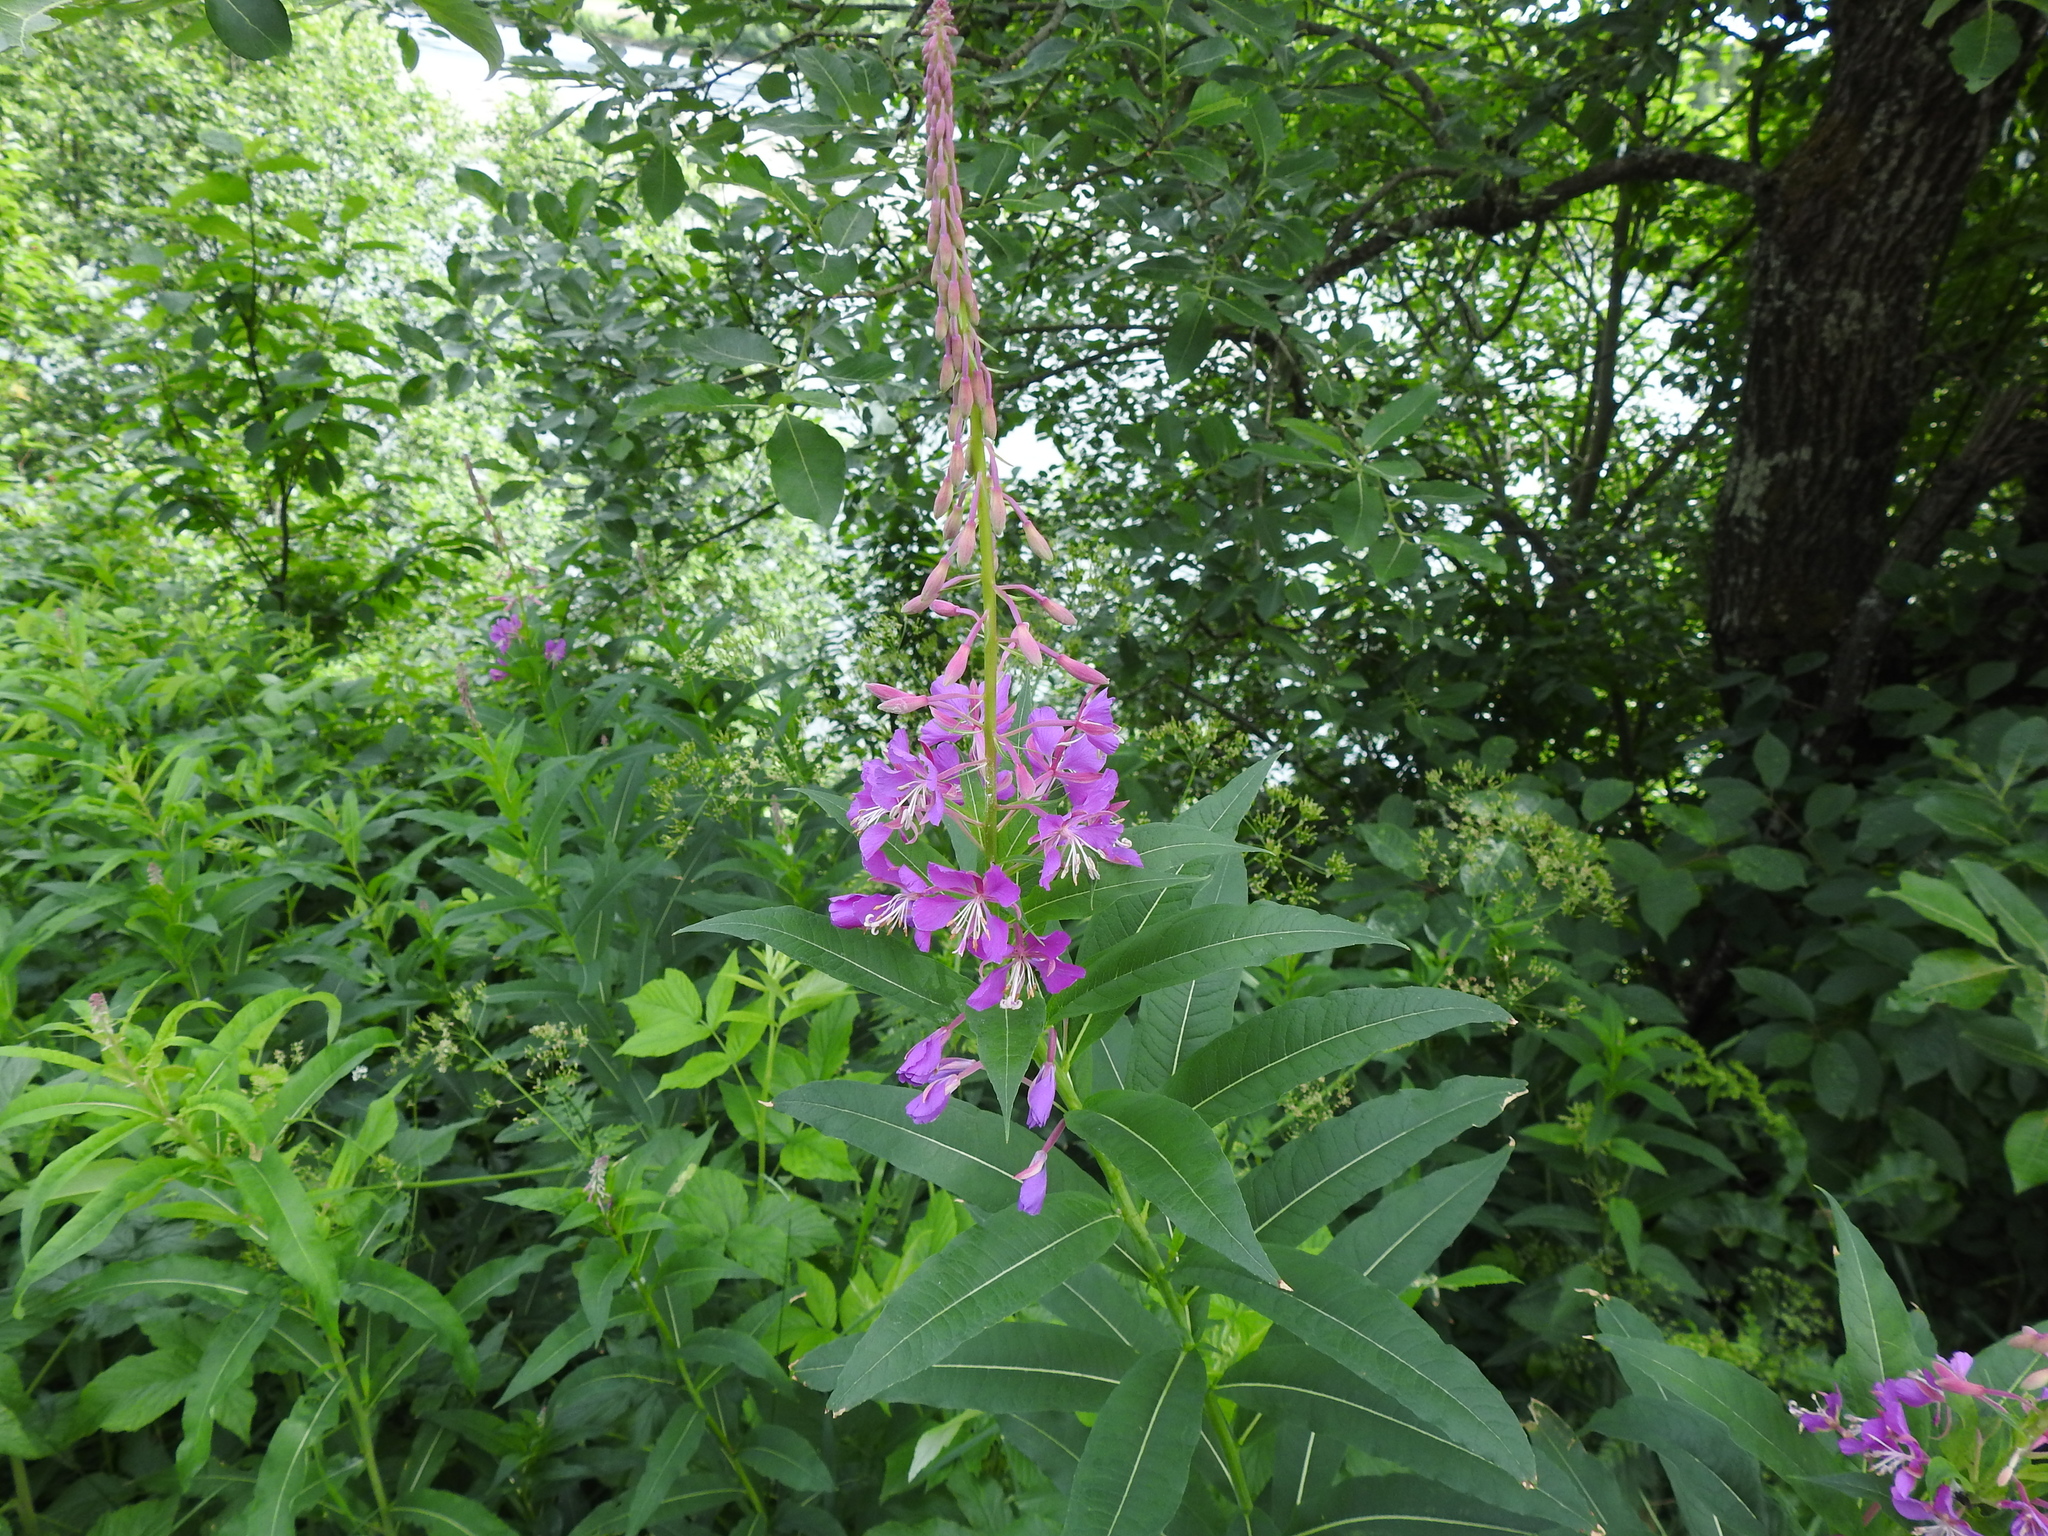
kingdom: Plantae
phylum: Tracheophyta
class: Magnoliopsida
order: Myrtales
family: Onagraceae
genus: Chamaenerion
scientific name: Chamaenerion angustifolium
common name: Fireweed
